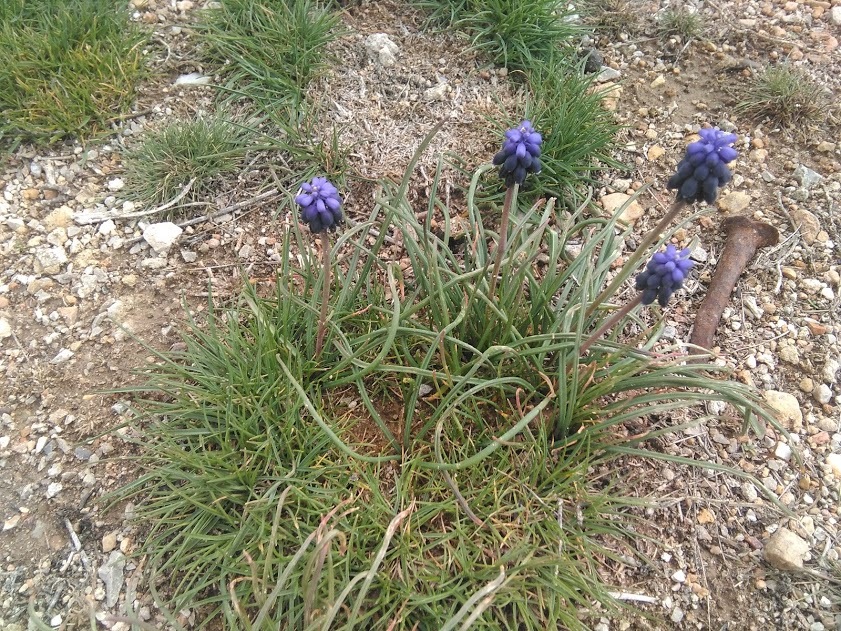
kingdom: Plantae
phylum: Tracheophyta
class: Liliopsida
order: Asparagales
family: Asparagaceae
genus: Muscari
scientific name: Muscari neglectum
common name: Grape-hyacinth
